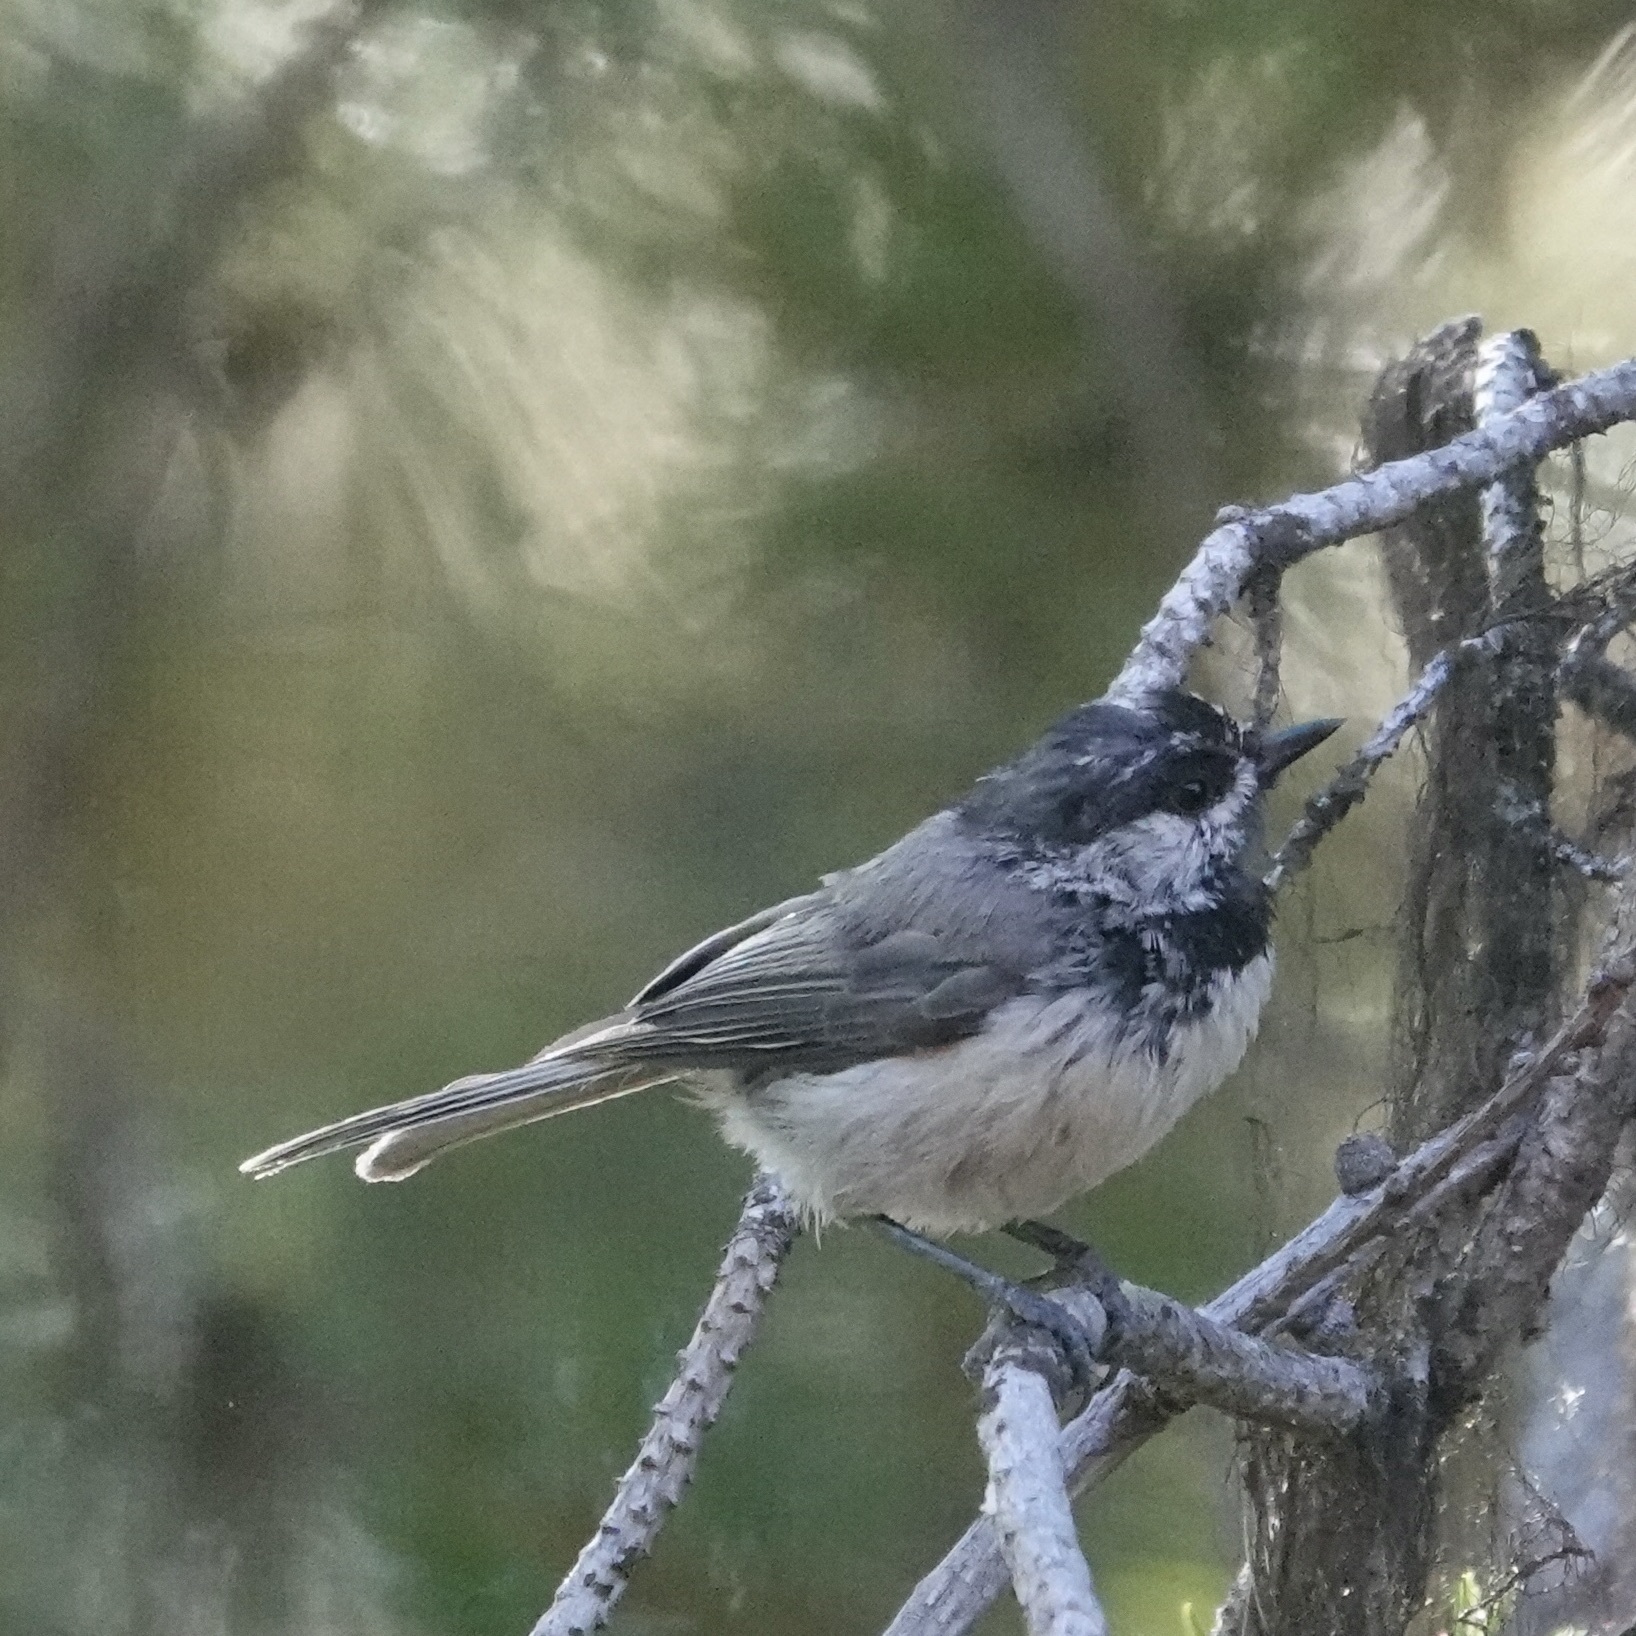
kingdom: Animalia
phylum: Chordata
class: Aves
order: Passeriformes
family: Paridae
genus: Poecile
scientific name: Poecile gambeli
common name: Mountain chickadee
